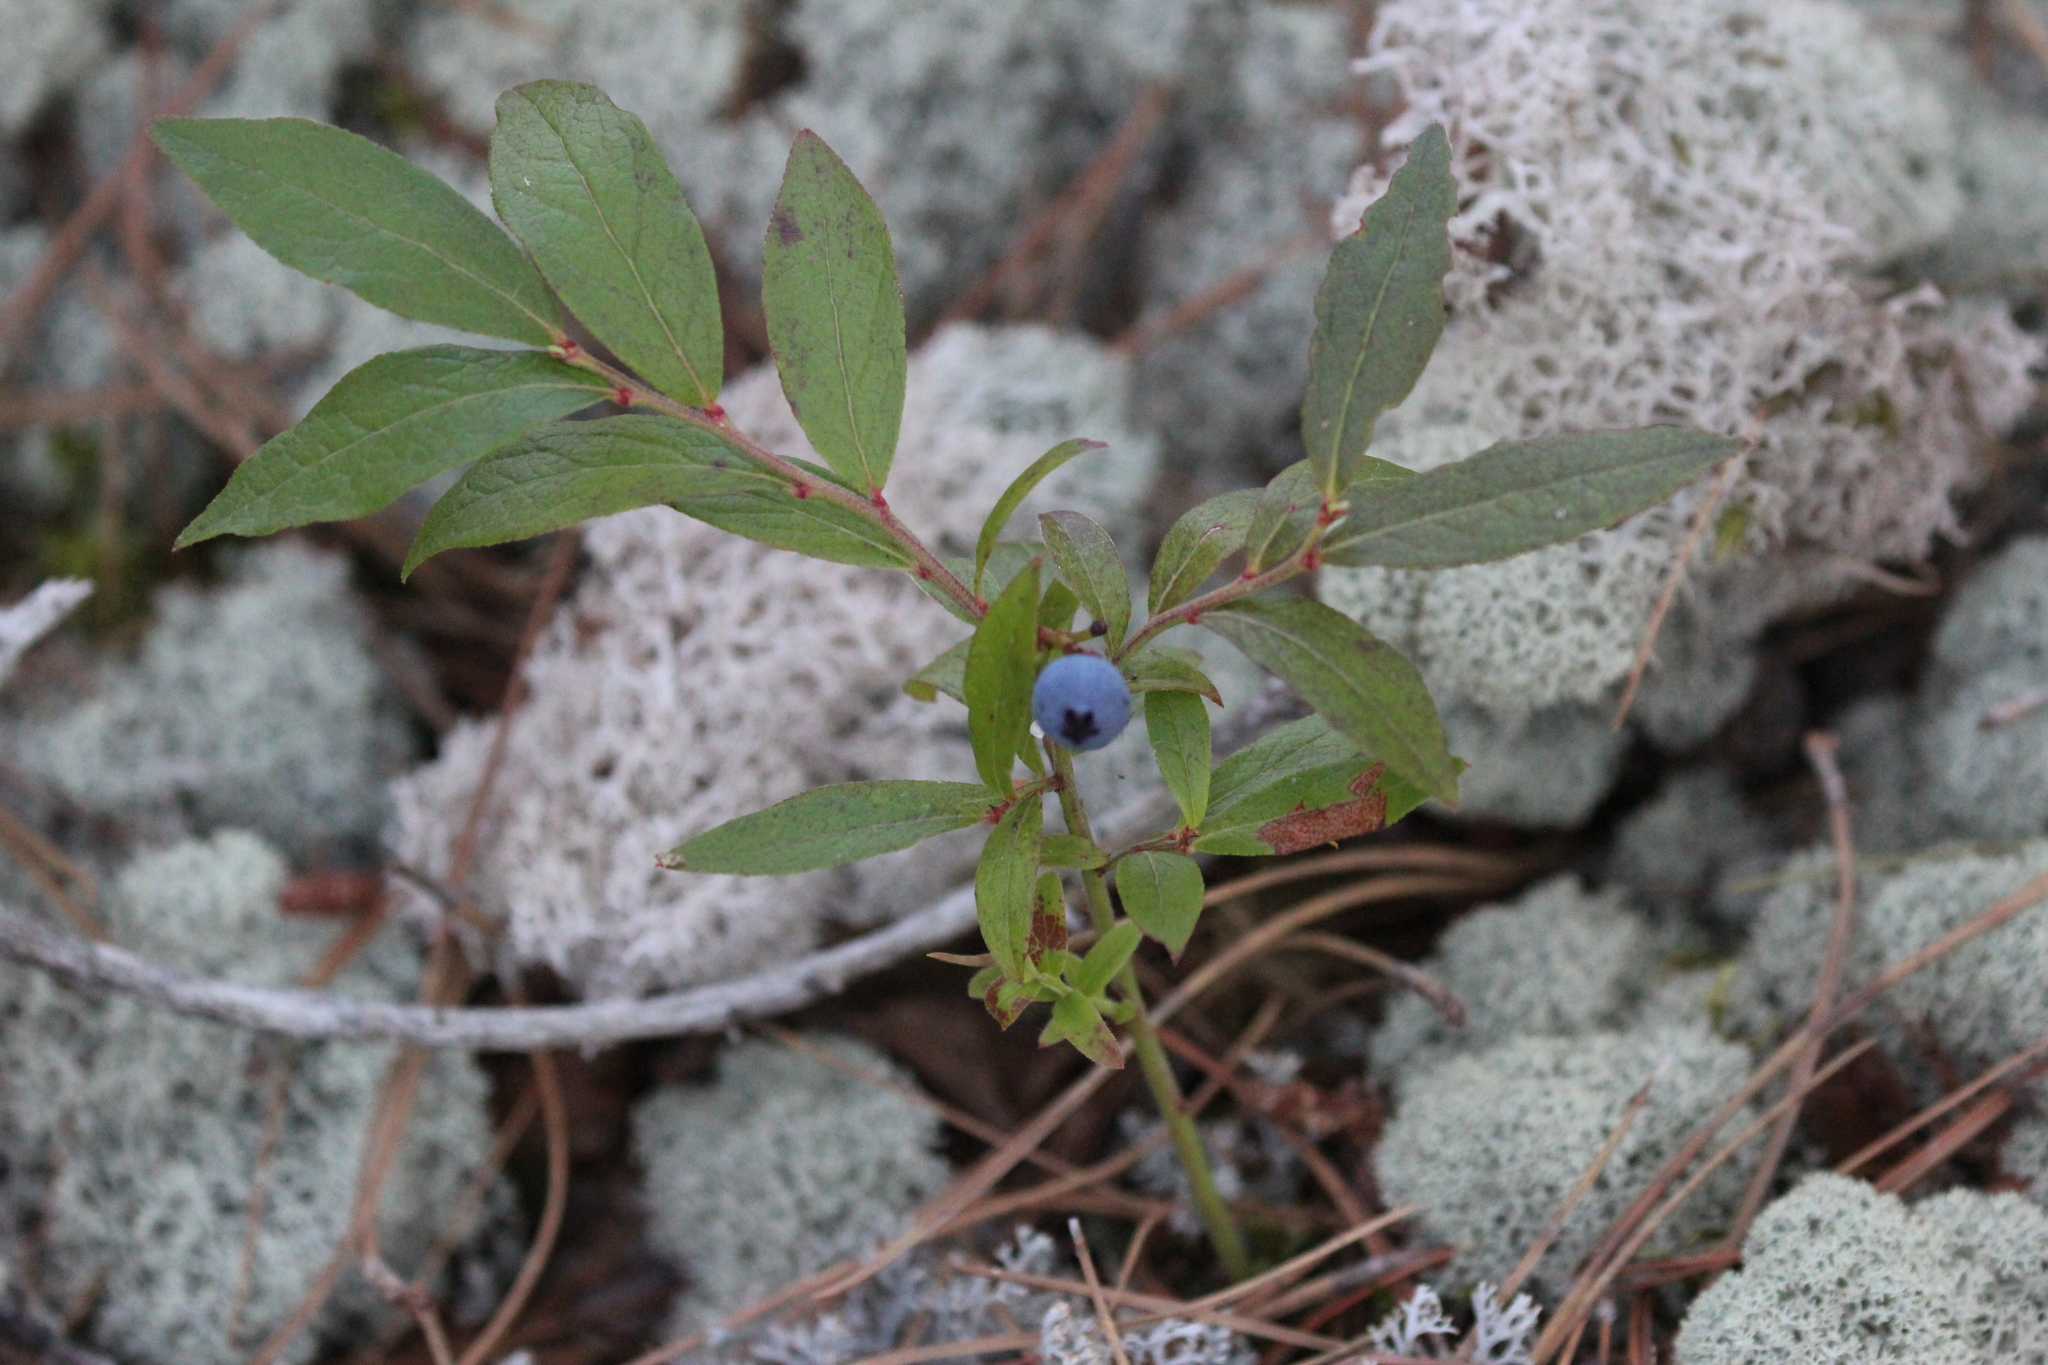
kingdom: Plantae
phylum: Tracheophyta
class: Magnoliopsida
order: Ericales
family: Ericaceae
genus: Vaccinium
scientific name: Vaccinium angustifolium
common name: Early lowbush blueberry
